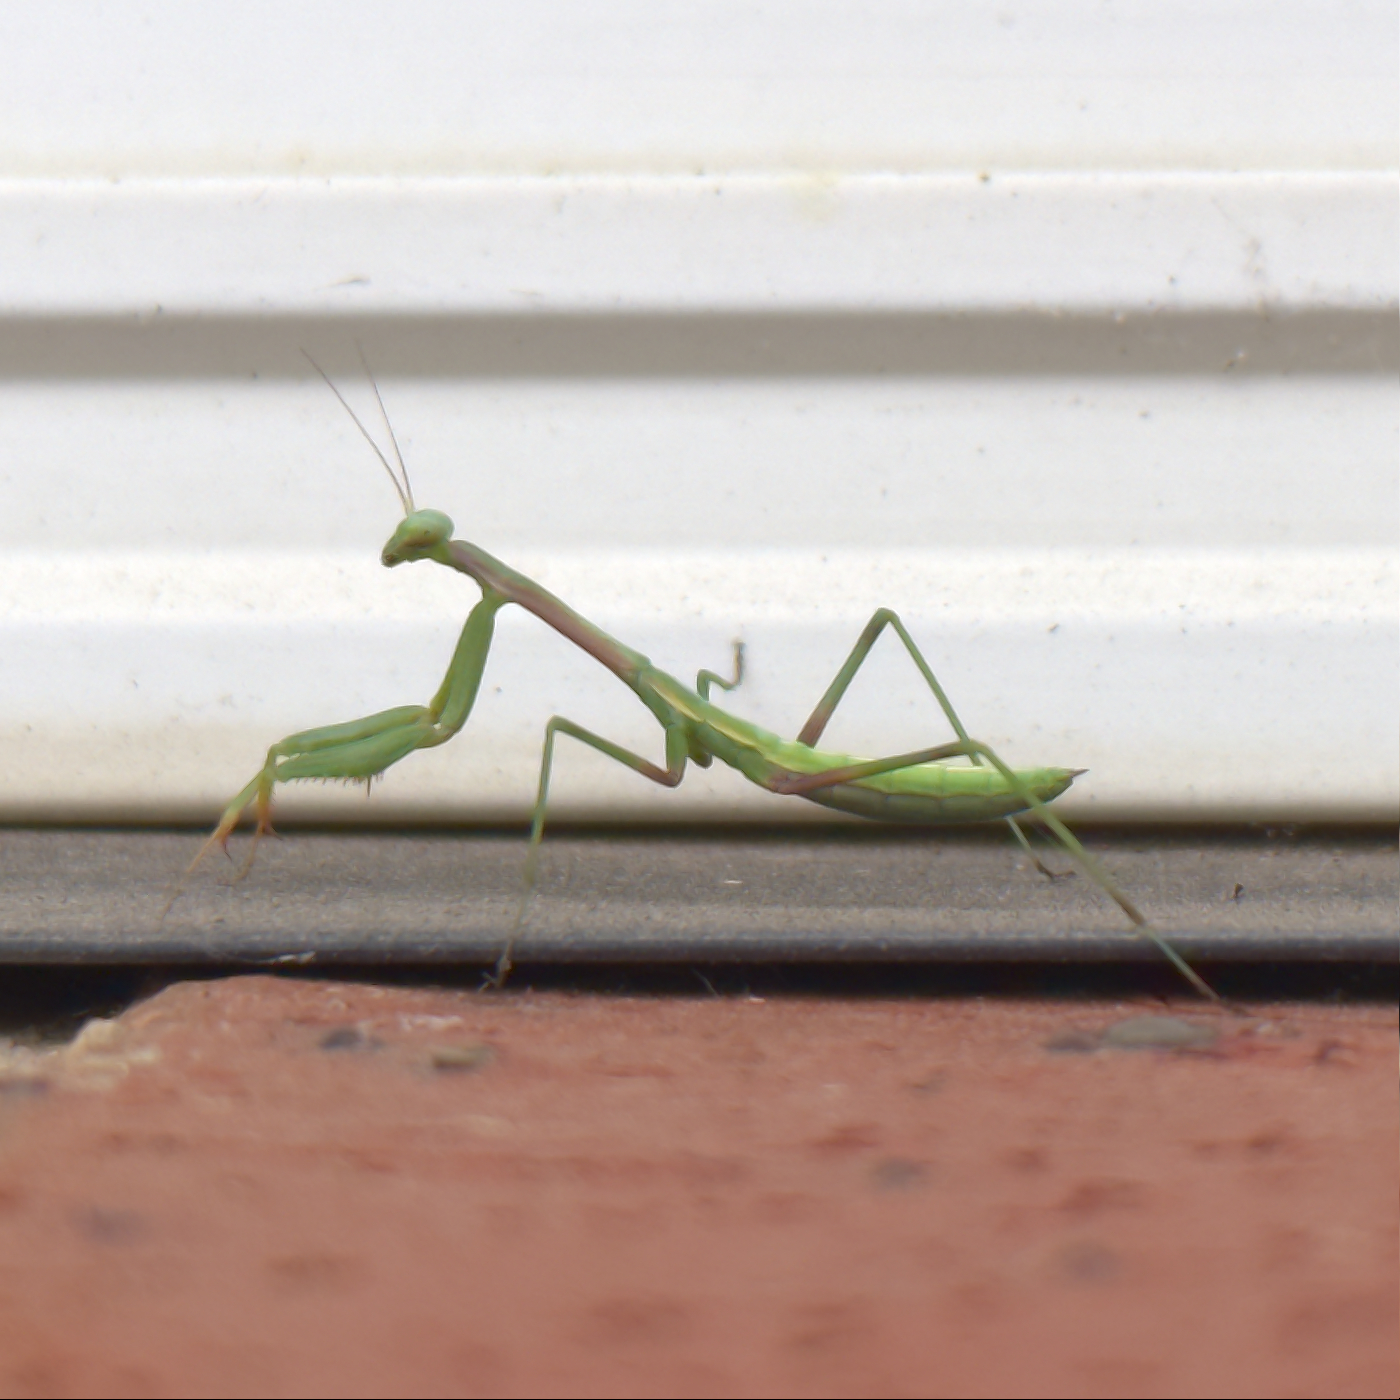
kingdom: Animalia
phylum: Arthropoda
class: Insecta
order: Mantodea
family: Mantidae
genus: Pseudomantis
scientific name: Pseudomantis albofimbriata
